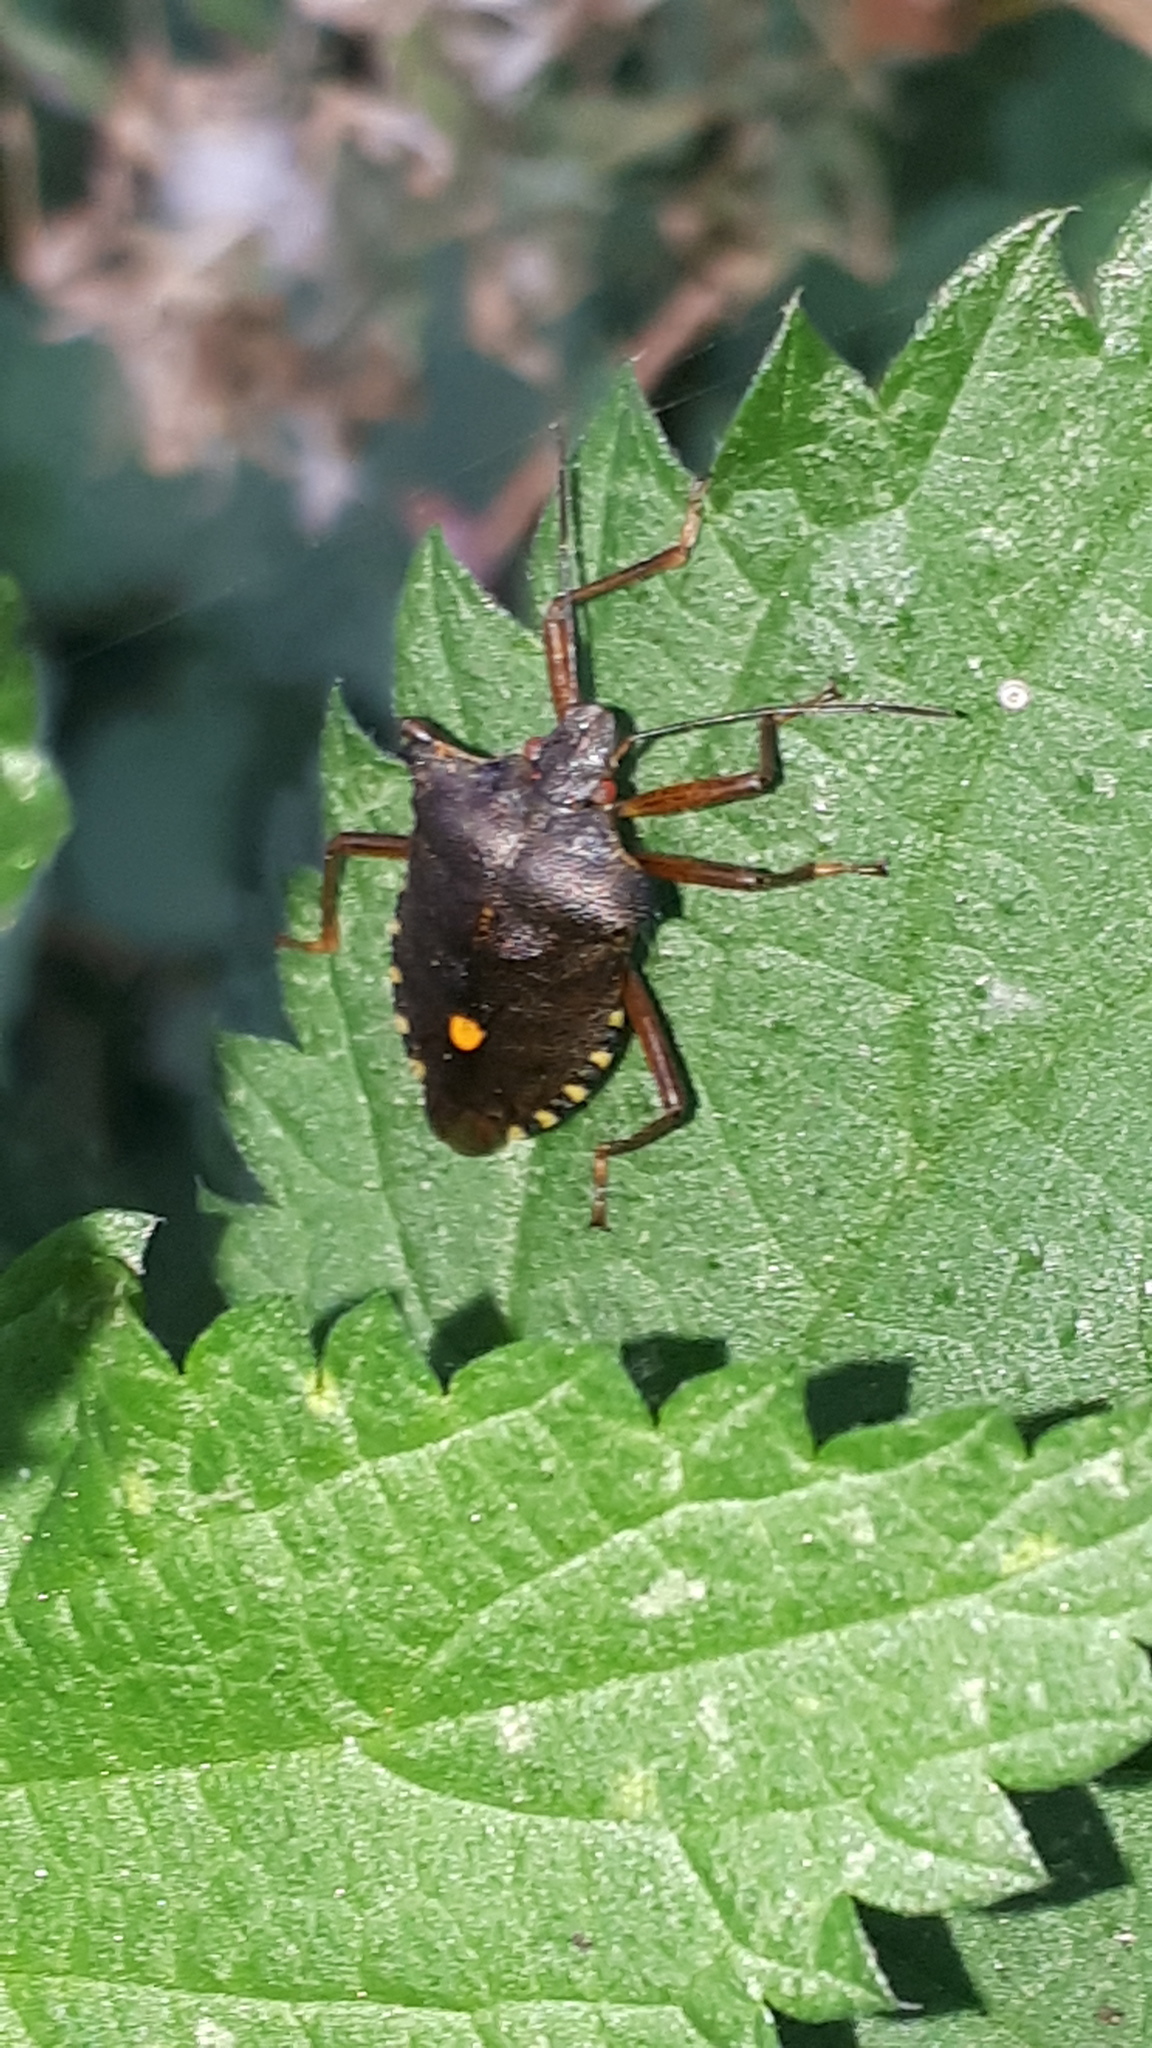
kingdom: Animalia
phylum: Arthropoda
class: Insecta
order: Hemiptera
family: Pentatomidae
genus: Pentatoma
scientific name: Pentatoma rufipes
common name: Forest bug
